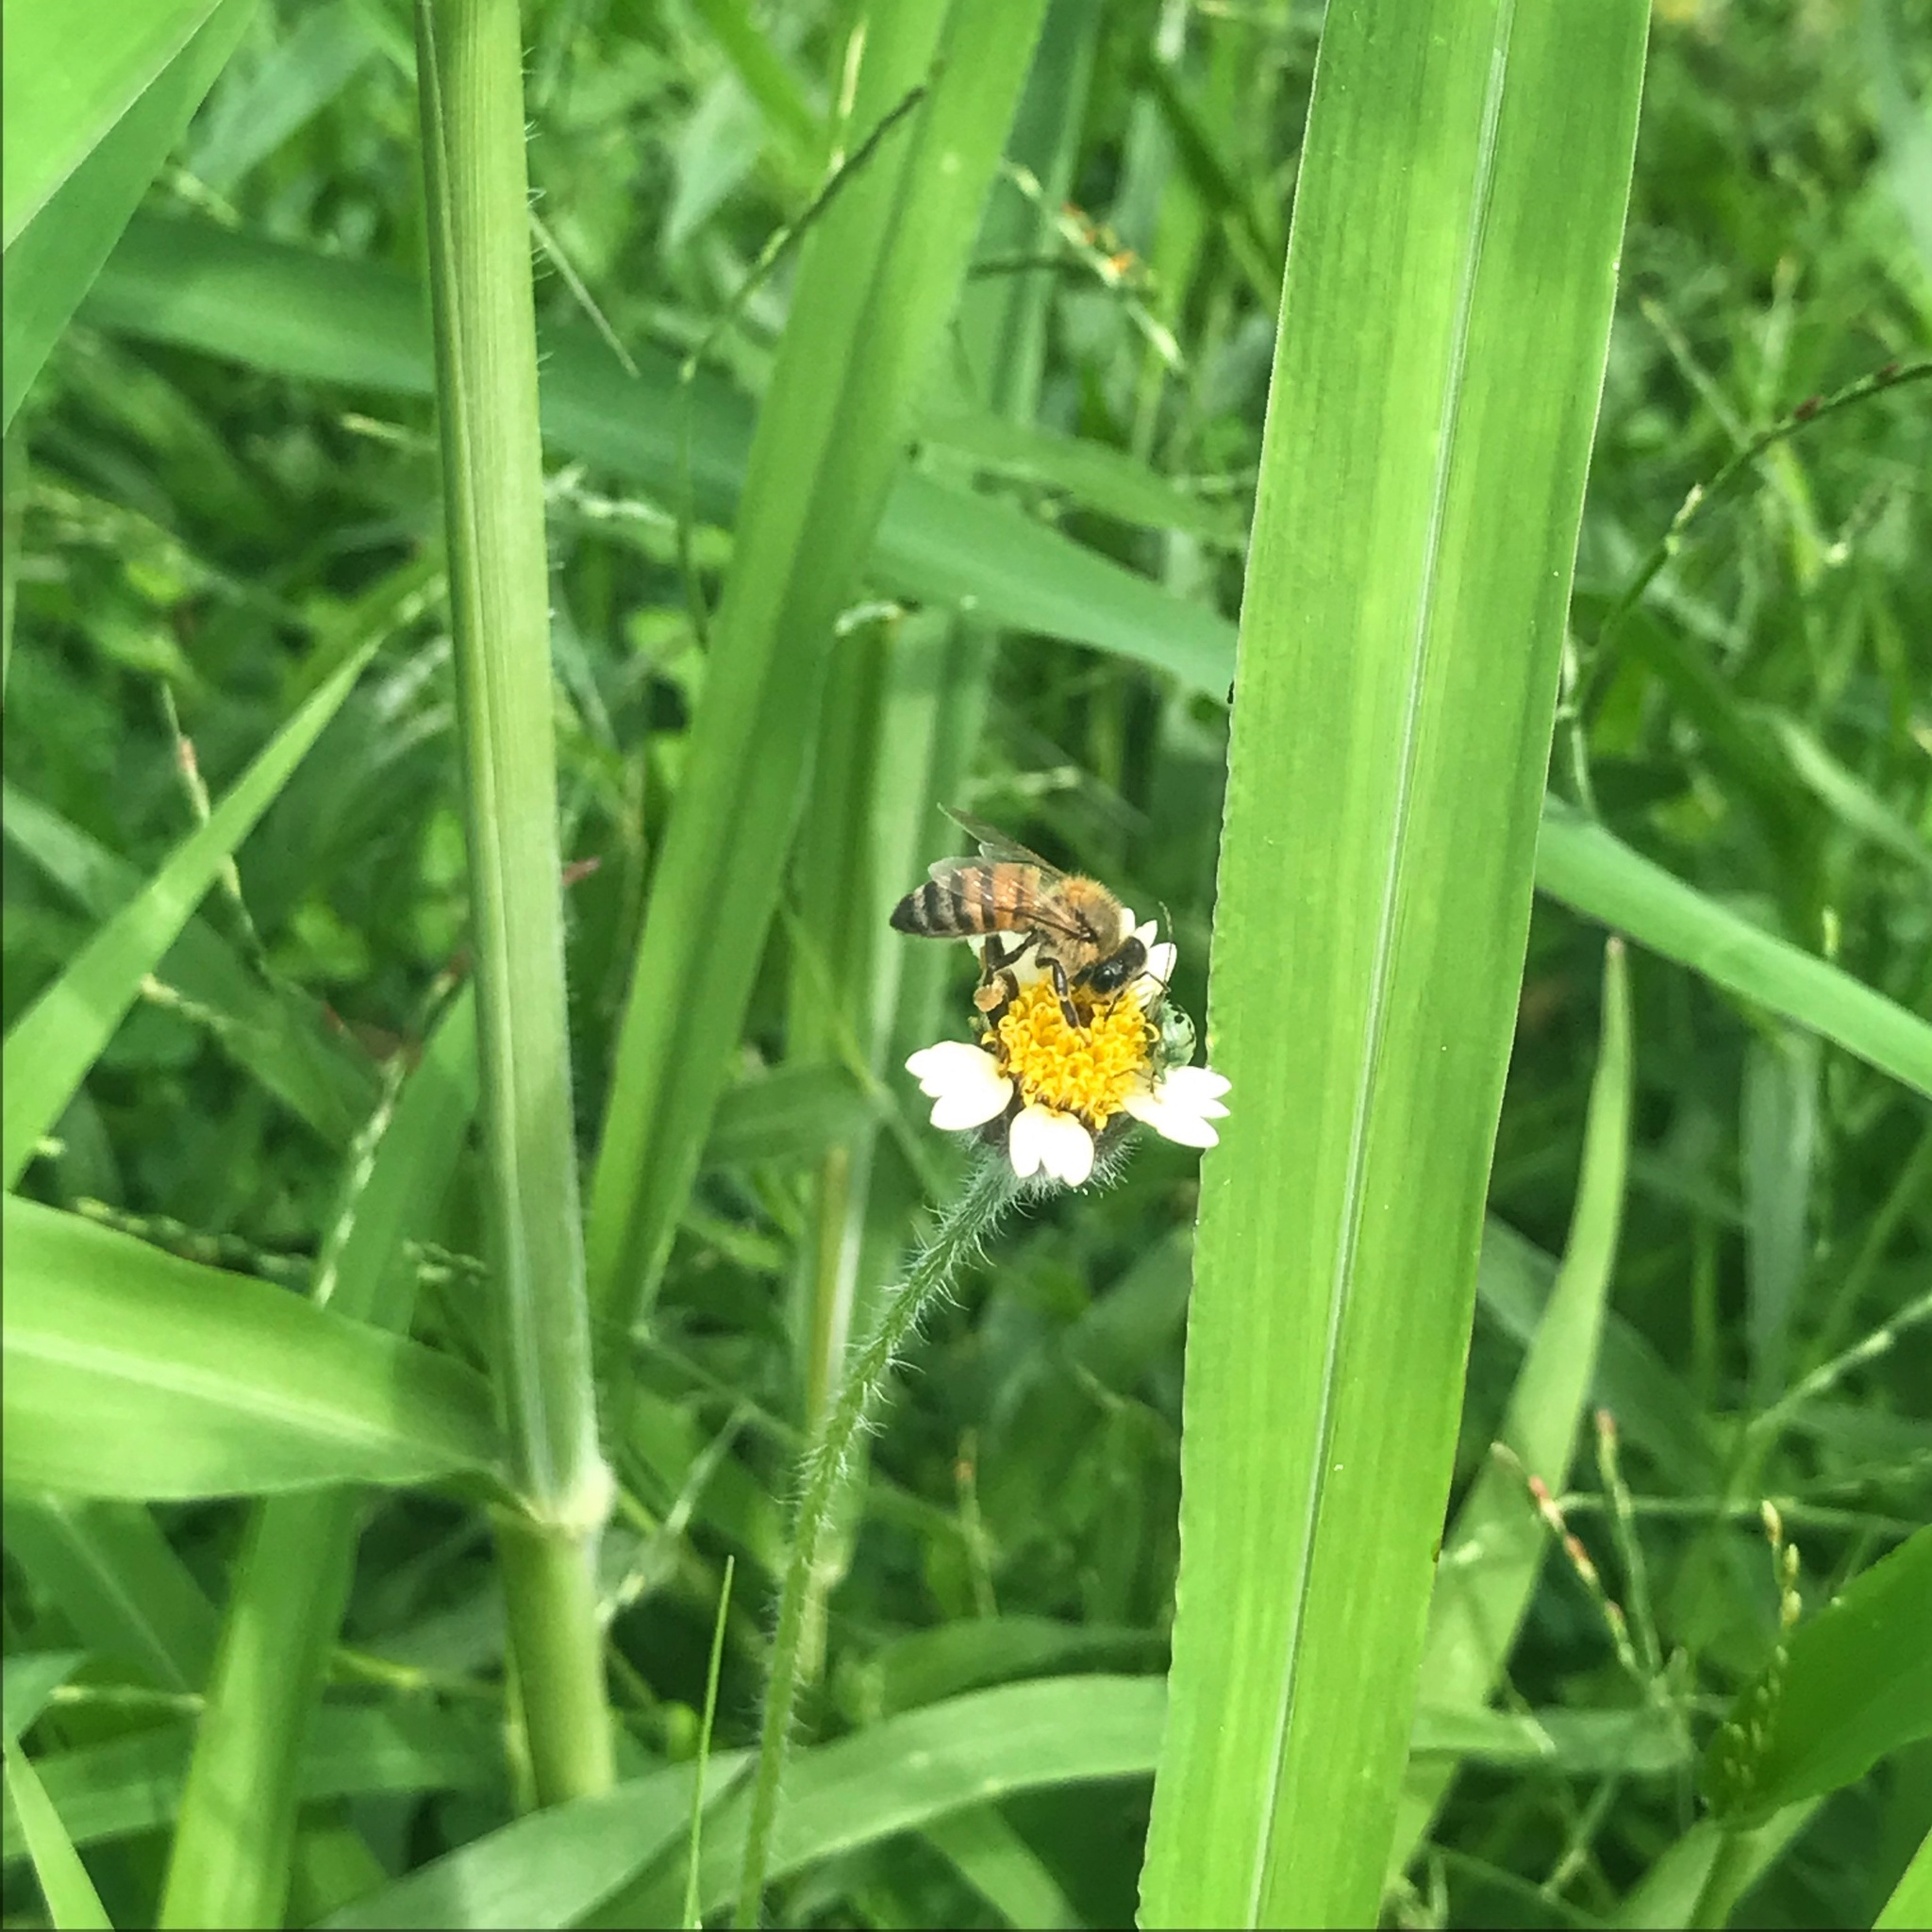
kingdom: Animalia
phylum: Arthropoda
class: Insecta
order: Hymenoptera
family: Apidae
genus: Apis
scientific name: Apis mellifera
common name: Honey bee
